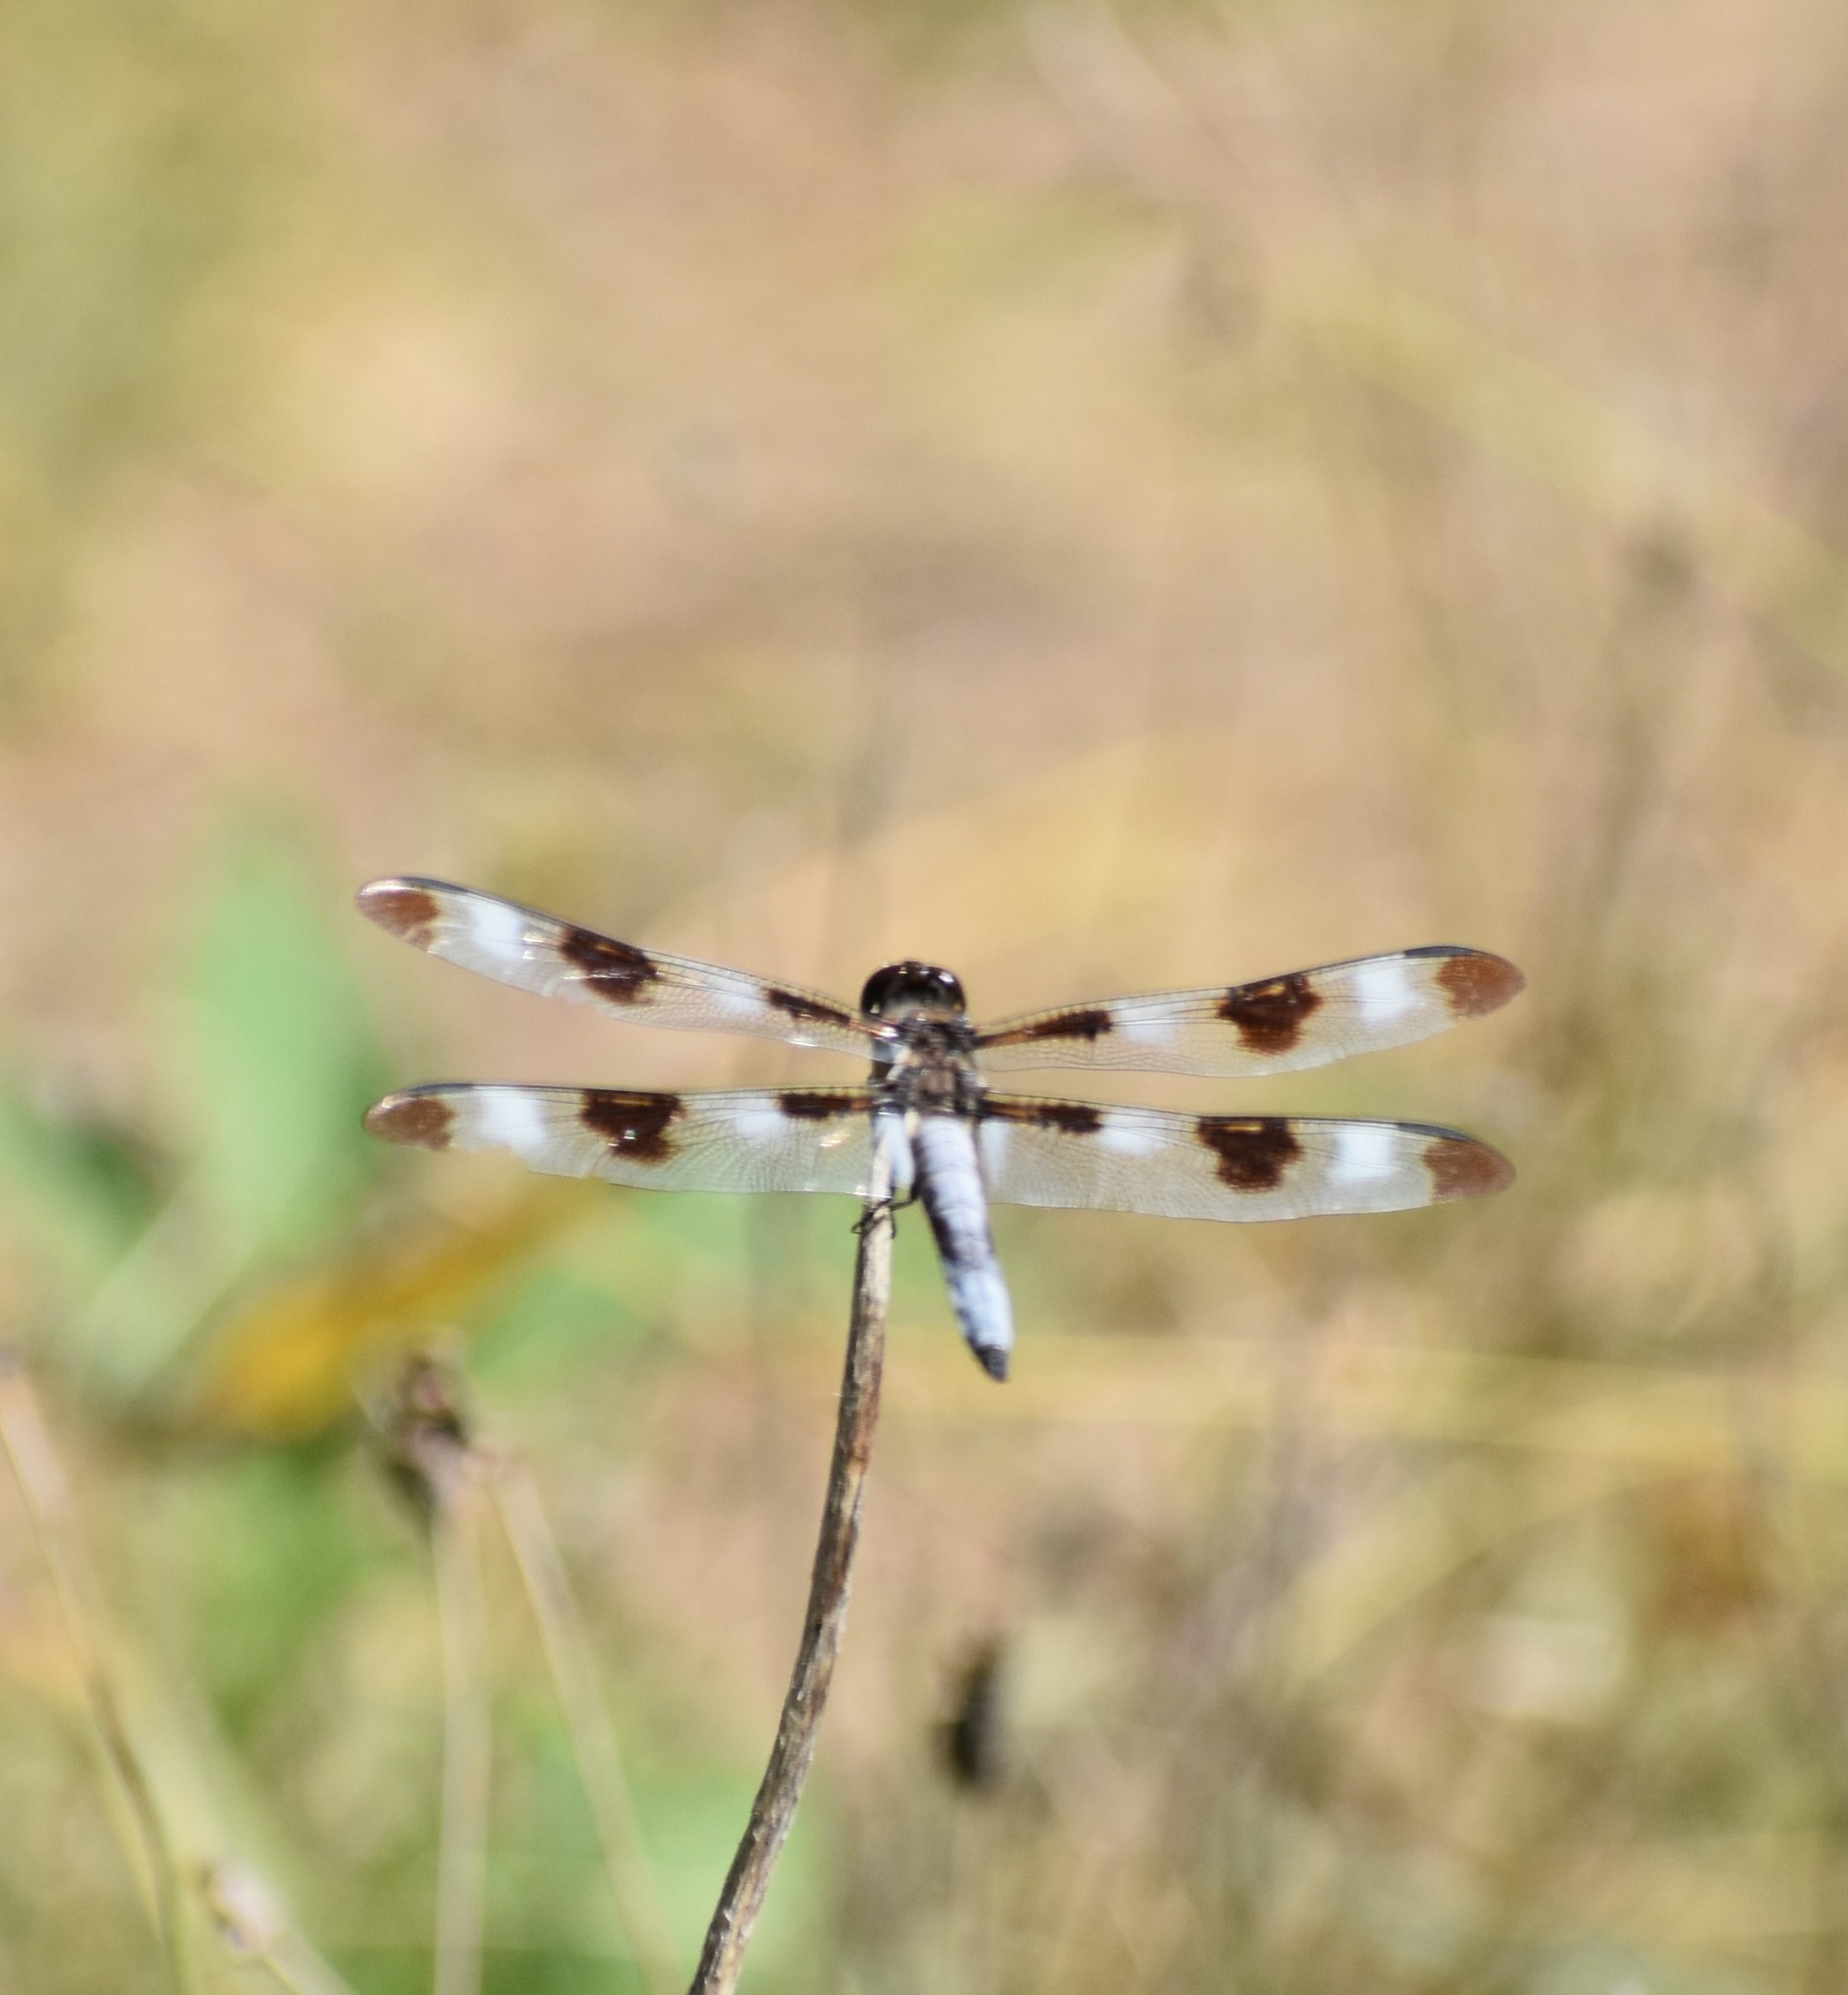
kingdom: Animalia
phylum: Arthropoda
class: Insecta
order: Odonata
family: Libellulidae
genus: Libellula
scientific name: Libellula pulchella
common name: Twelve-spotted skimmer
